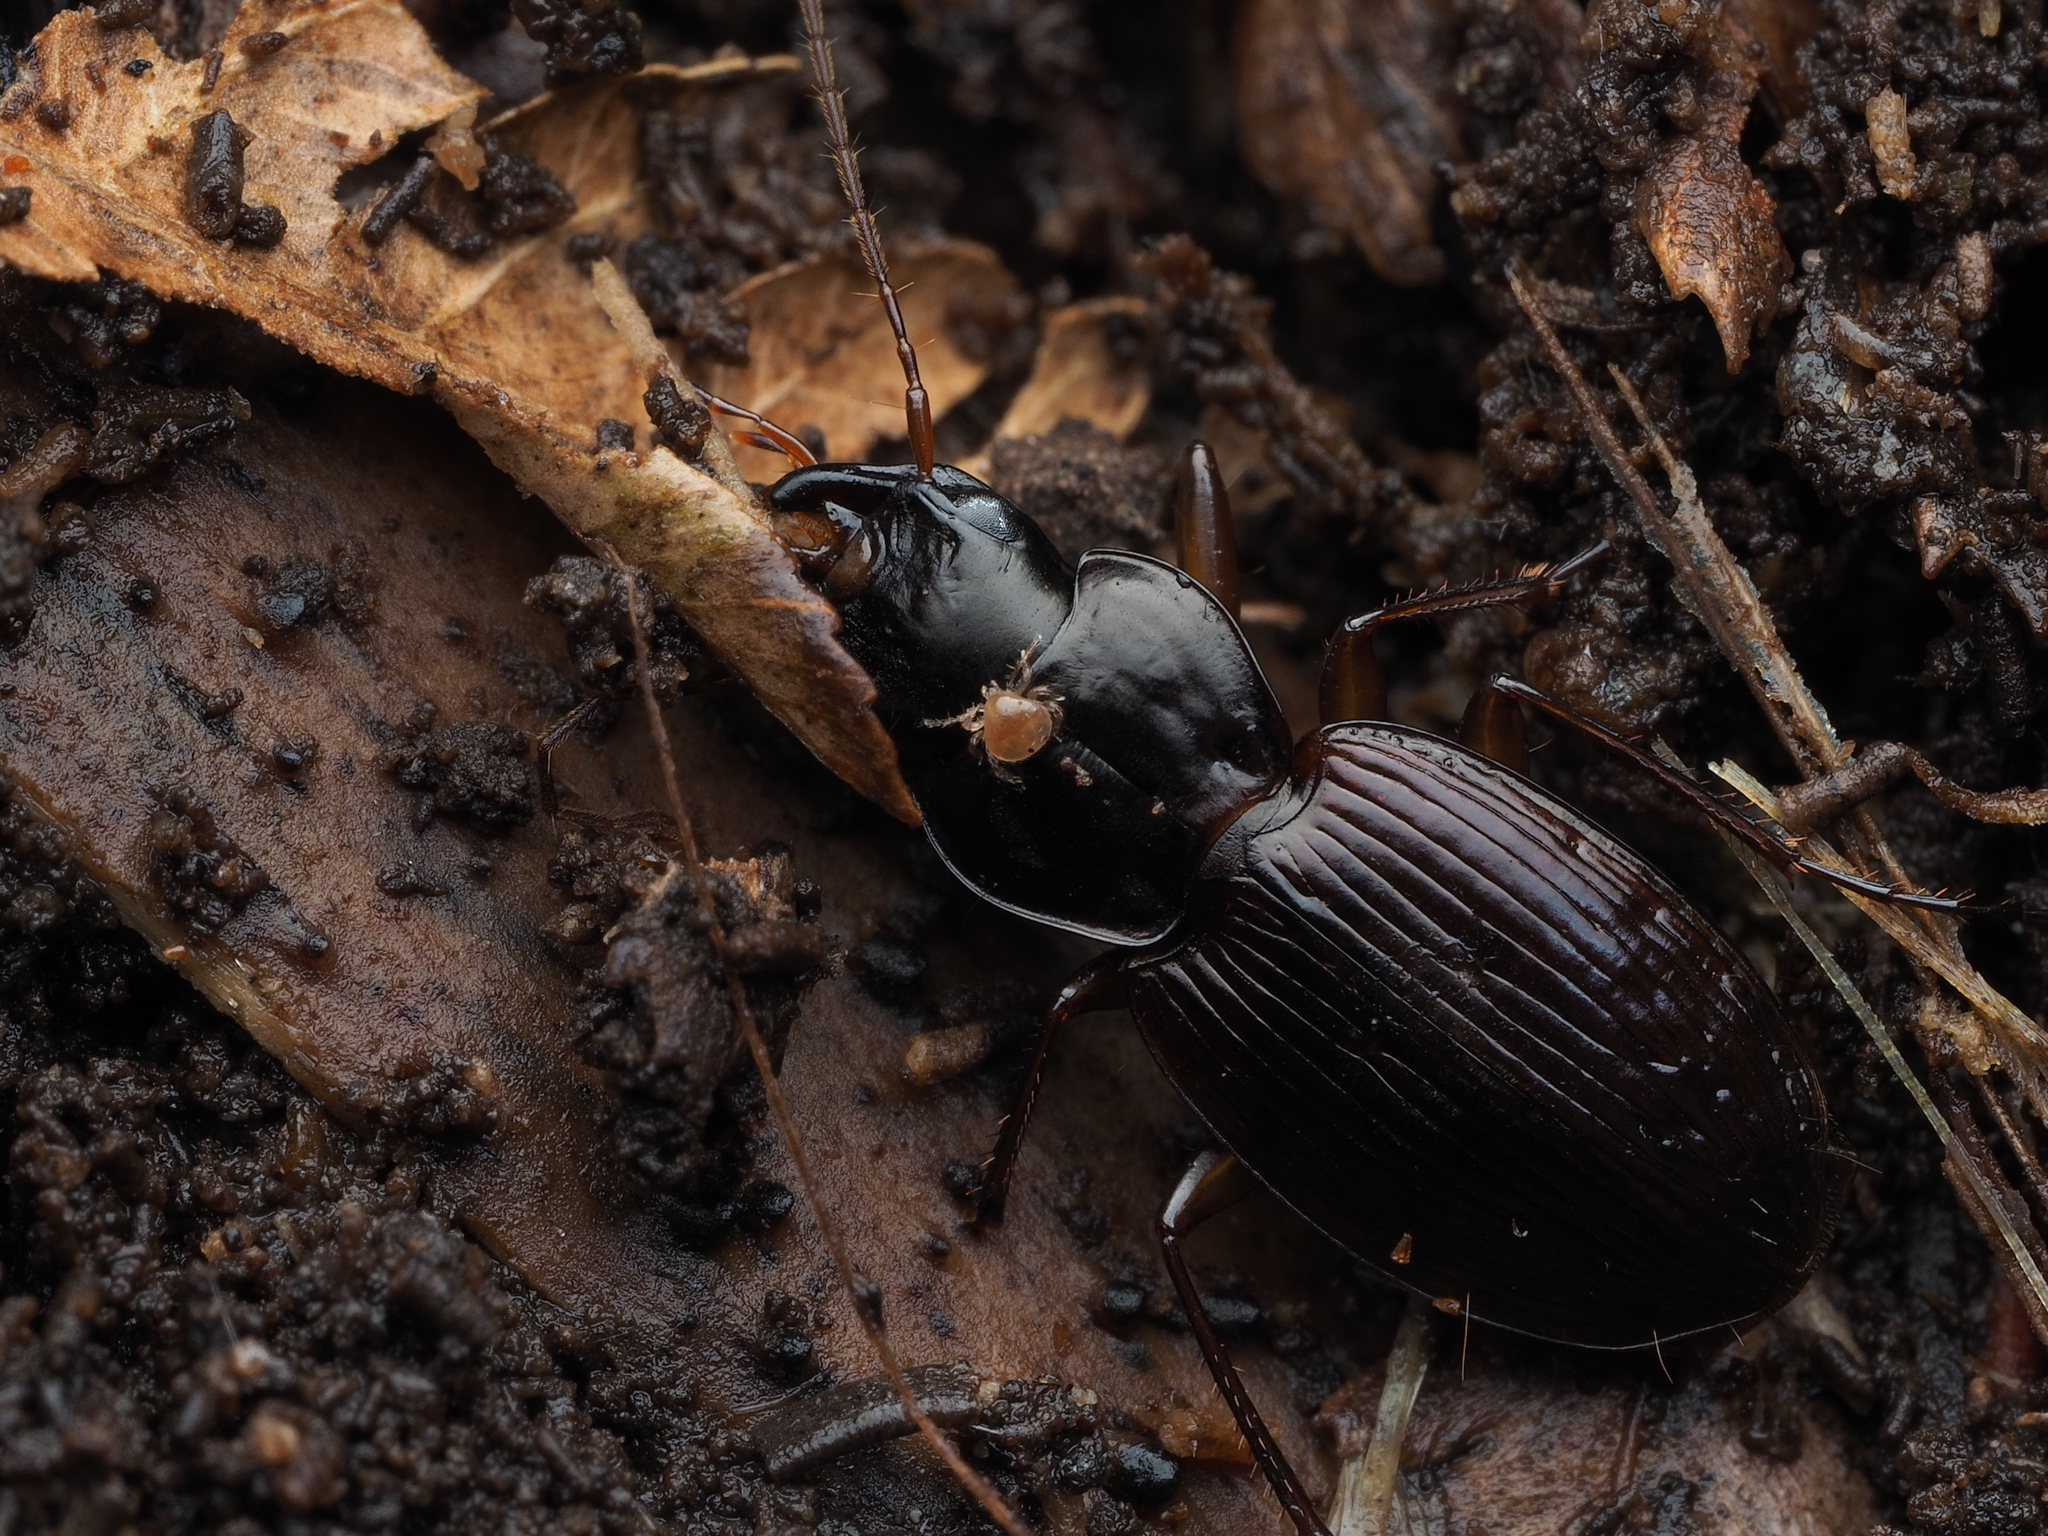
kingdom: Animalia
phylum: Arthropoda
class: Arachnida
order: Mesostigmata
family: Parantennulidae
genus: Micromegistus
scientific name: Micromegistus gourlayi
